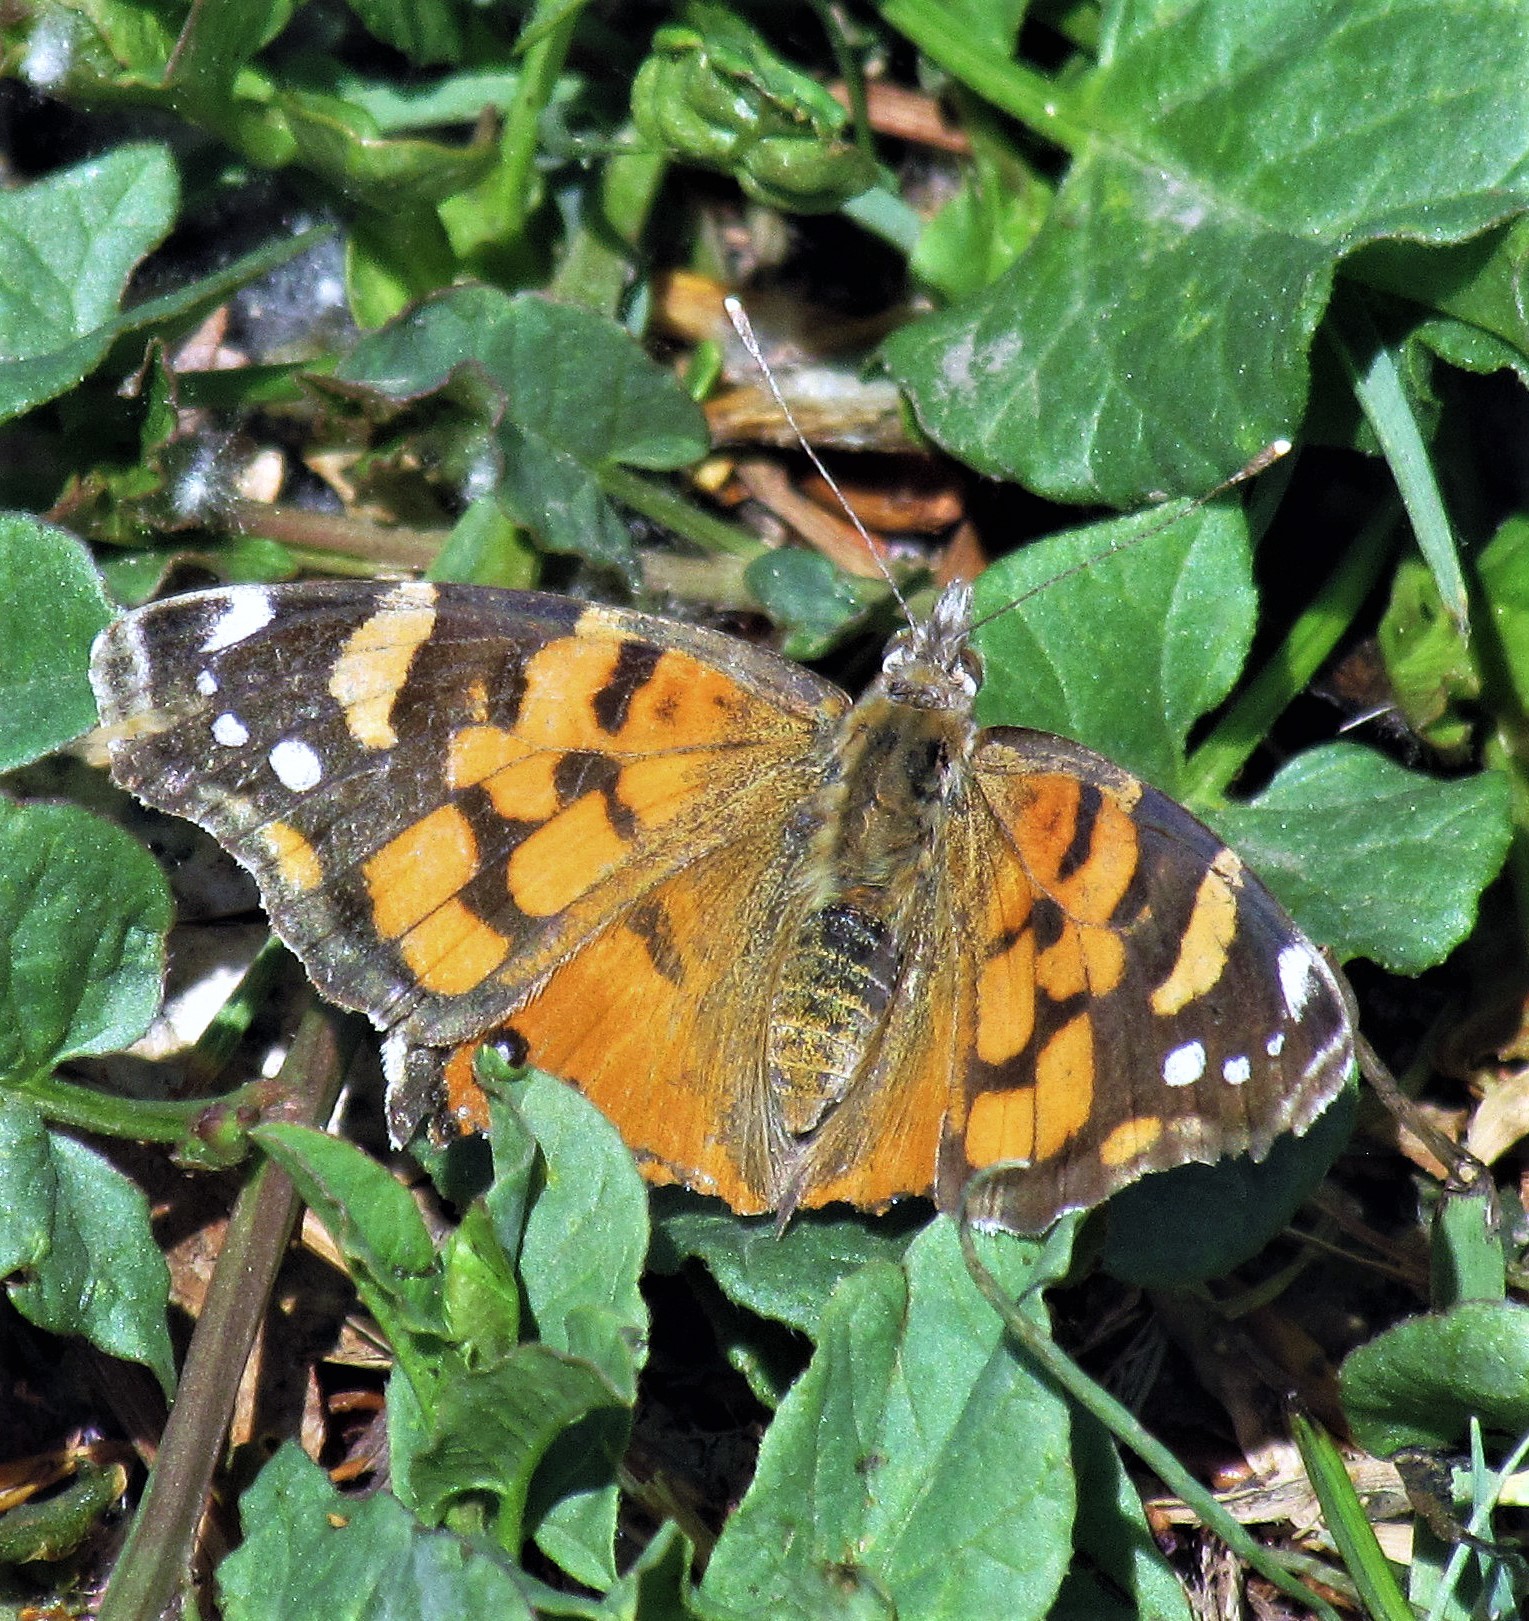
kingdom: Animalia
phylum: Arthropoda
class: Insecta
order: Lepidoptera
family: Nymphalidae
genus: Vanessa
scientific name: Vanessa carye
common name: Subtropical lady
